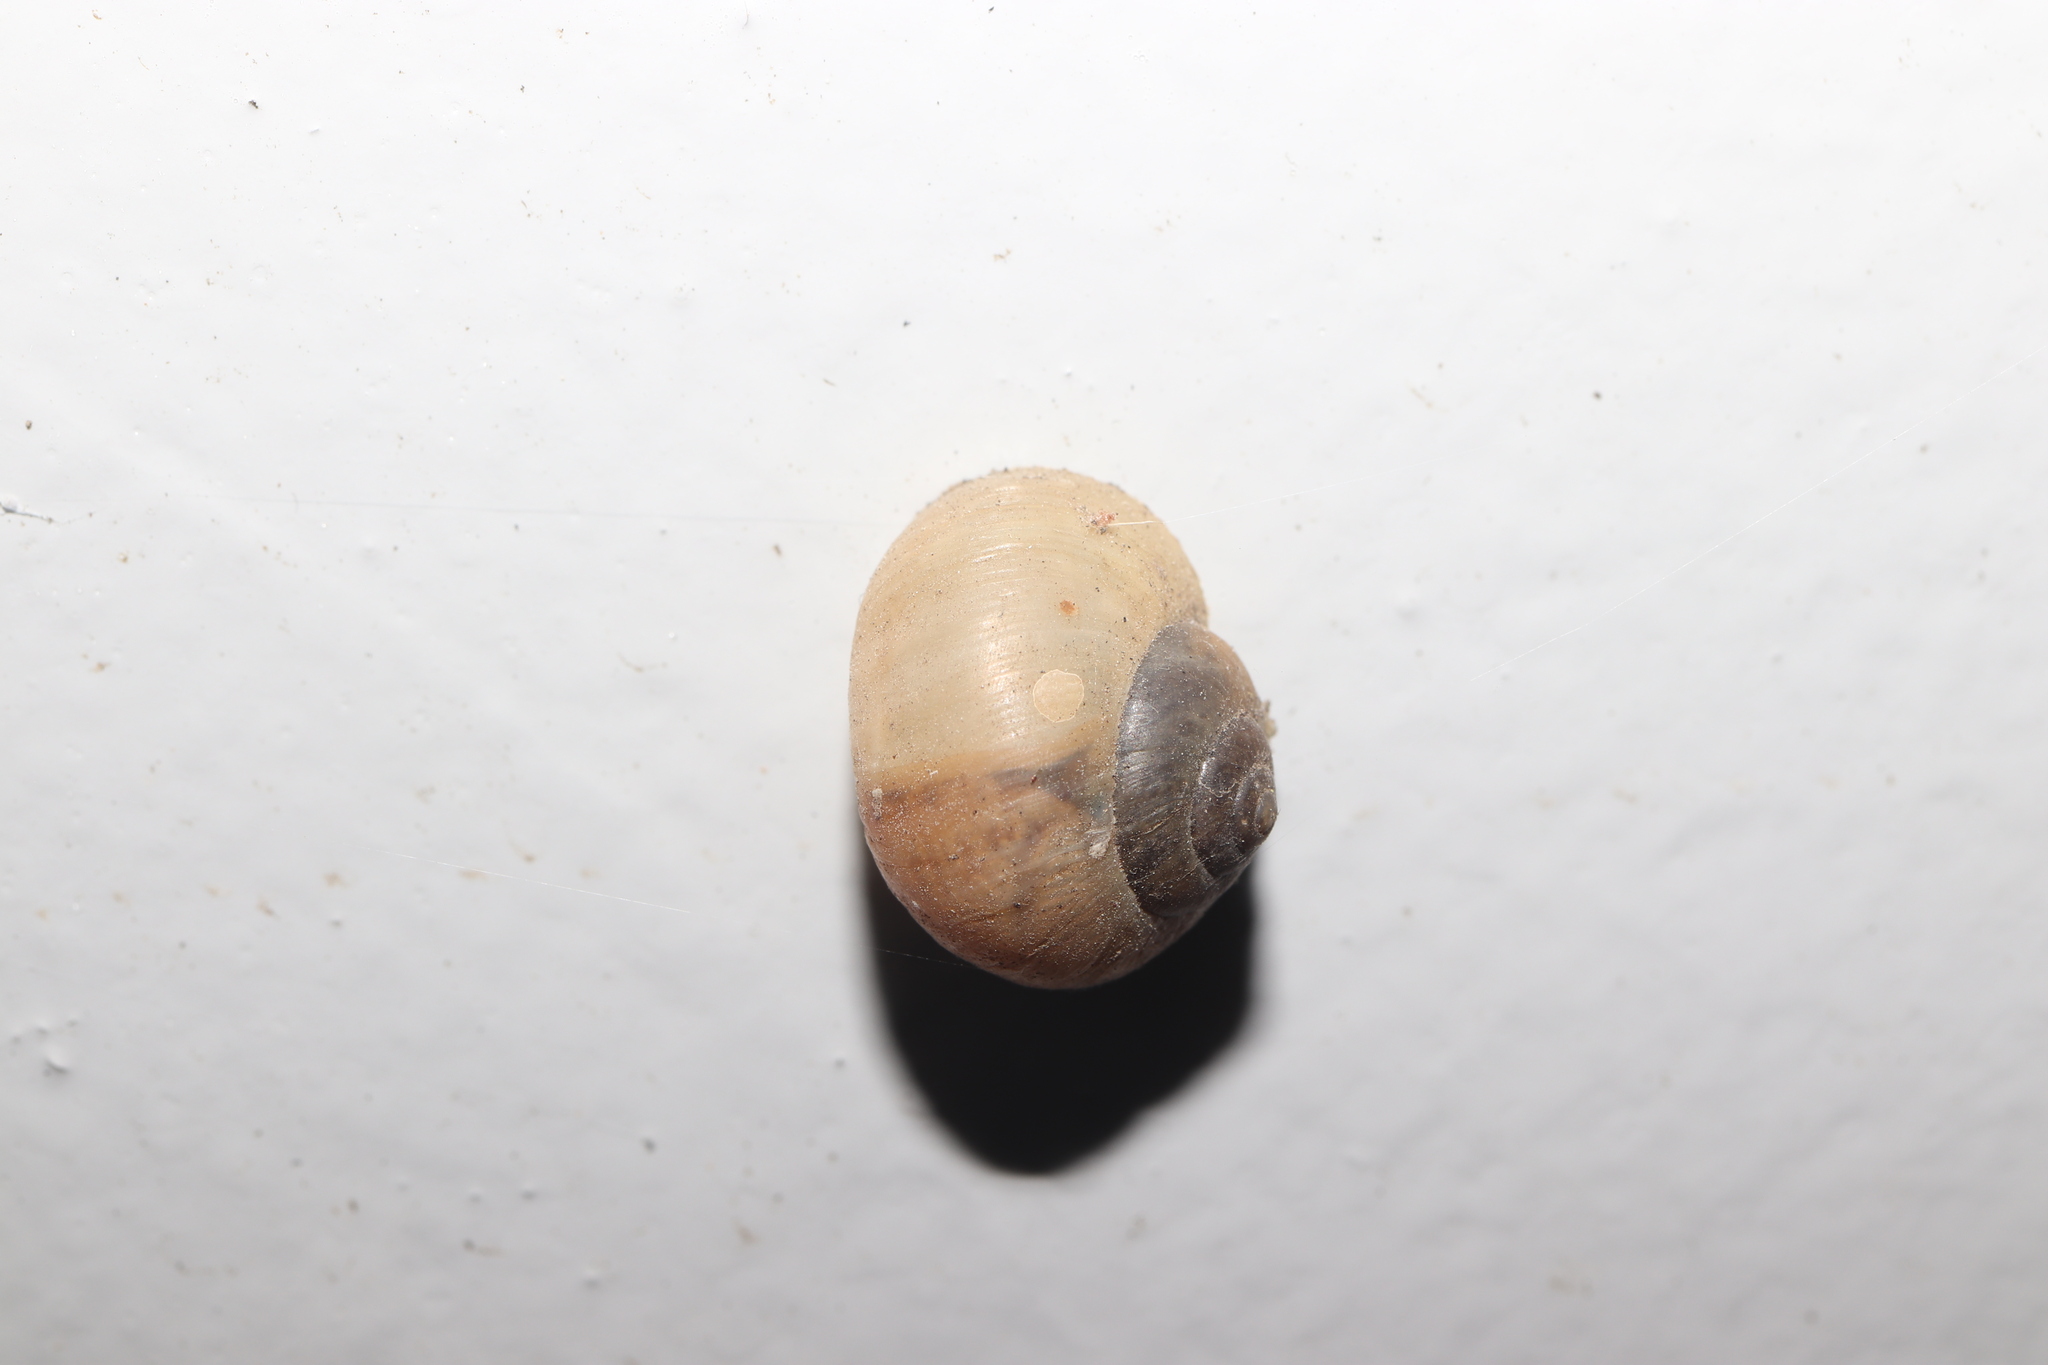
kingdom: Animalia
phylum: Mollusca
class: Gastropoda
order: Stylommatophora
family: Camaenidae
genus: Acusta
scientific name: Acusta sieboldtiana
